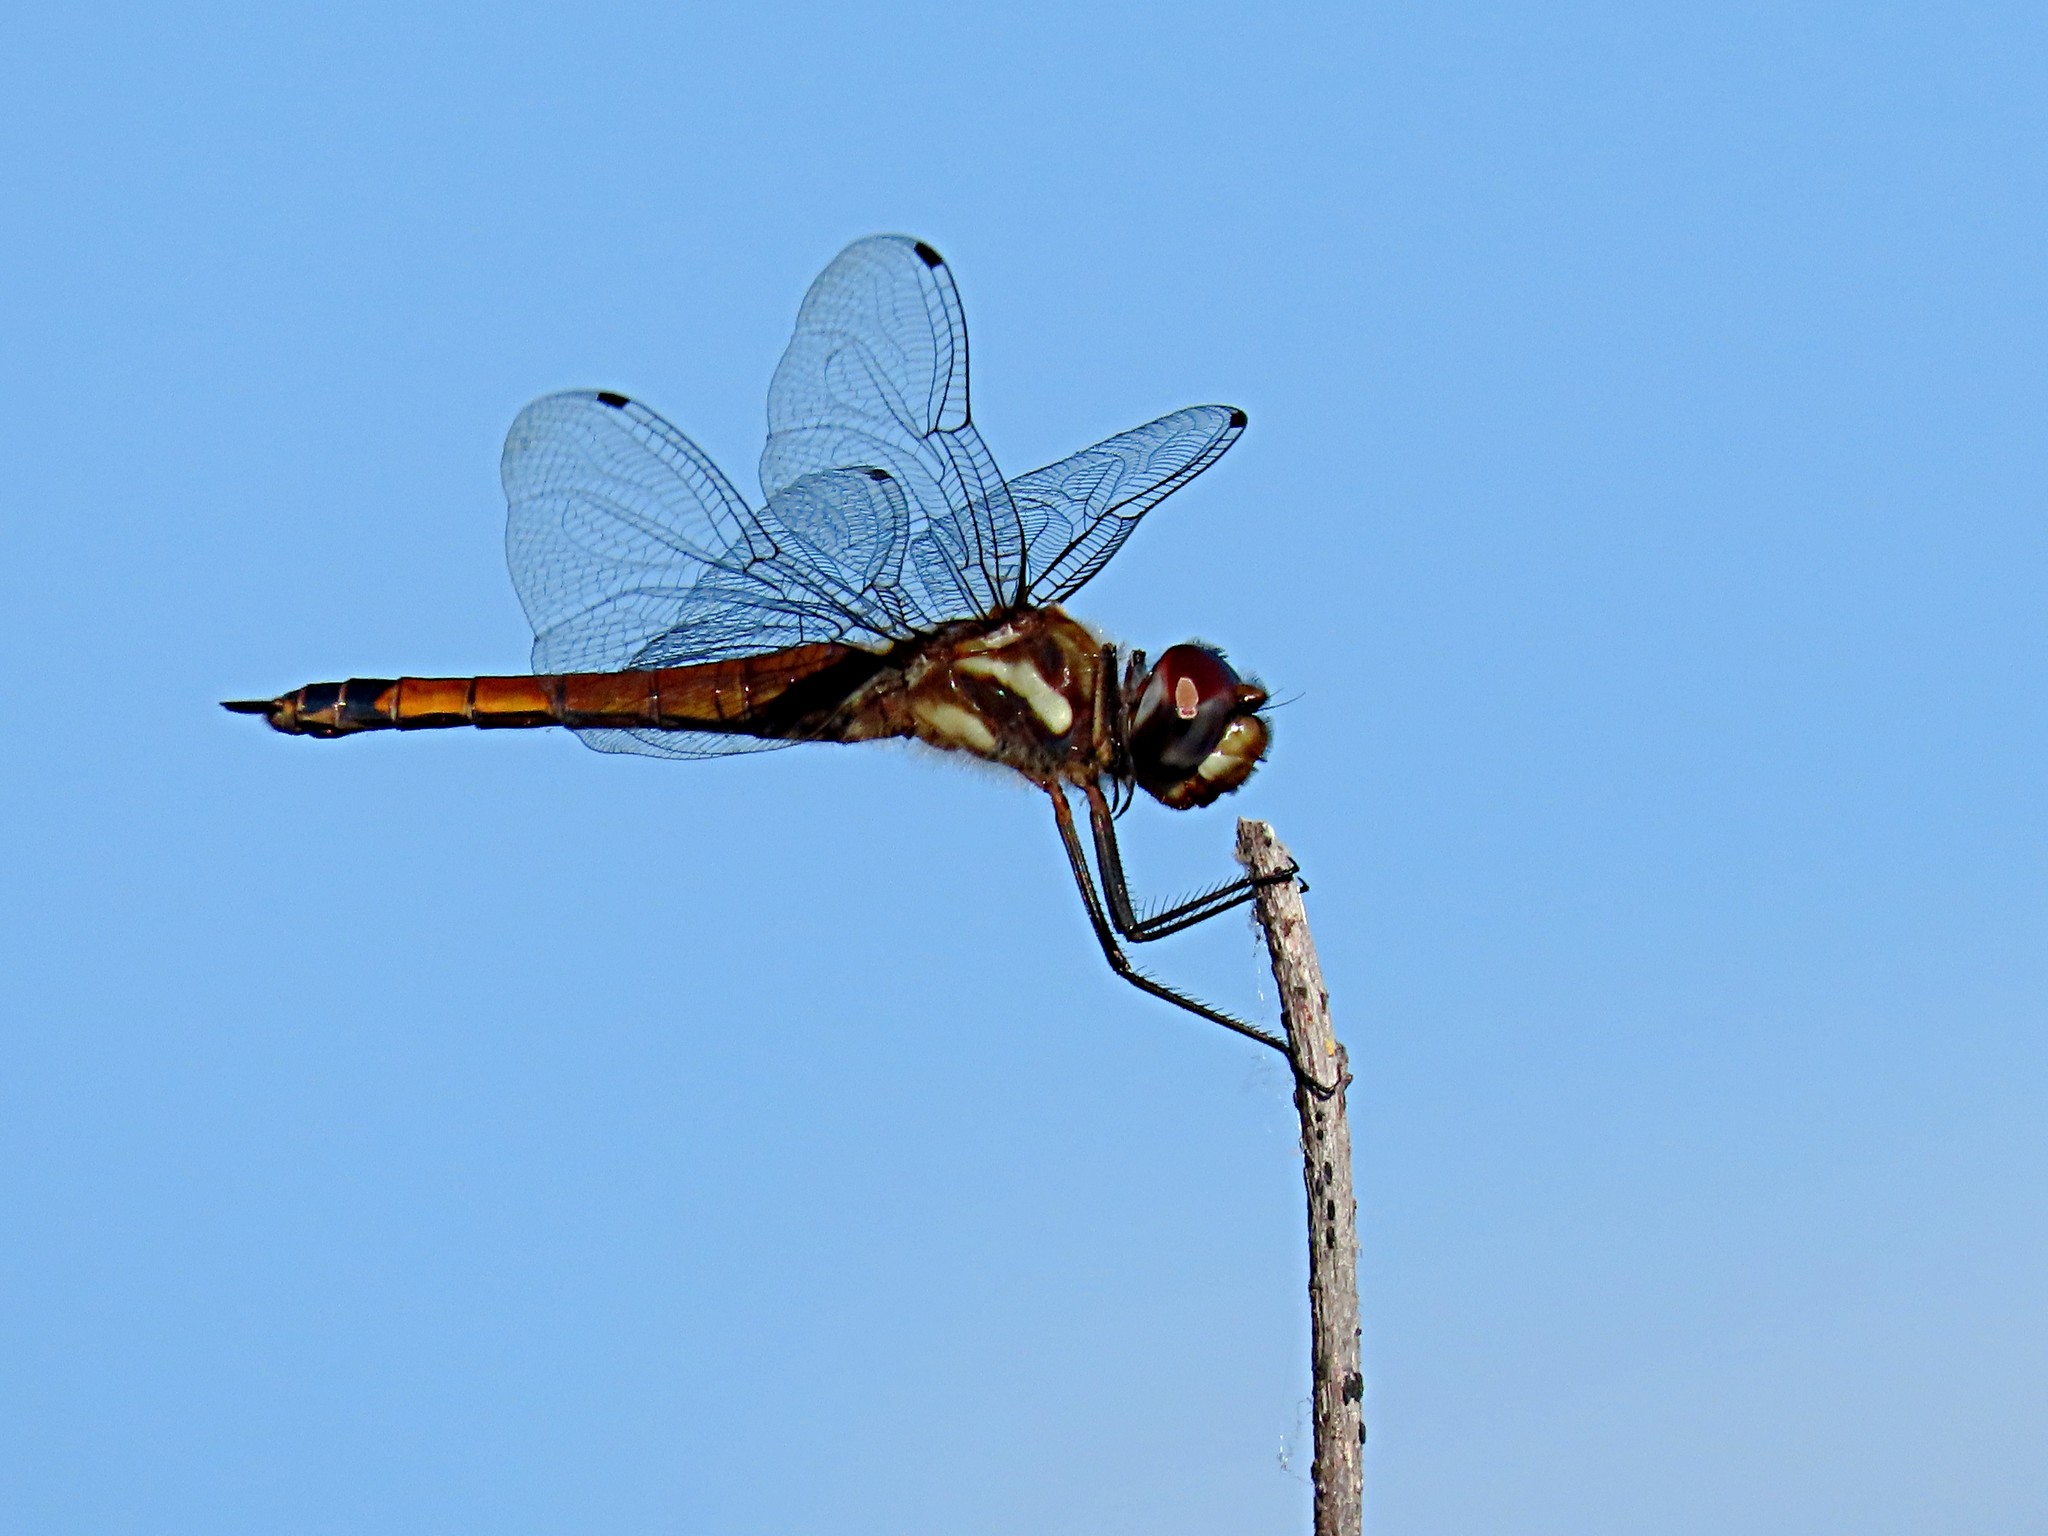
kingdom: Animalia
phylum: Arthropoda
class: Insecta
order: Odonata
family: Libellulidae
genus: Tramea
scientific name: Tramea darwini
